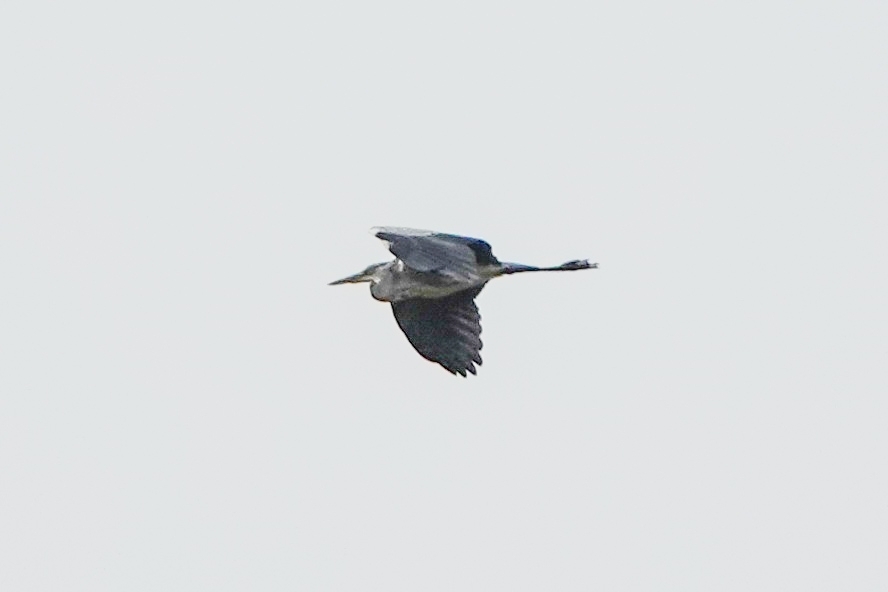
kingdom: Animalia
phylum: Chordata
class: Aves
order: Pelecaniformes
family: Ardeidae
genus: Ardea
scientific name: Ardea cinerea
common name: Grey heron
